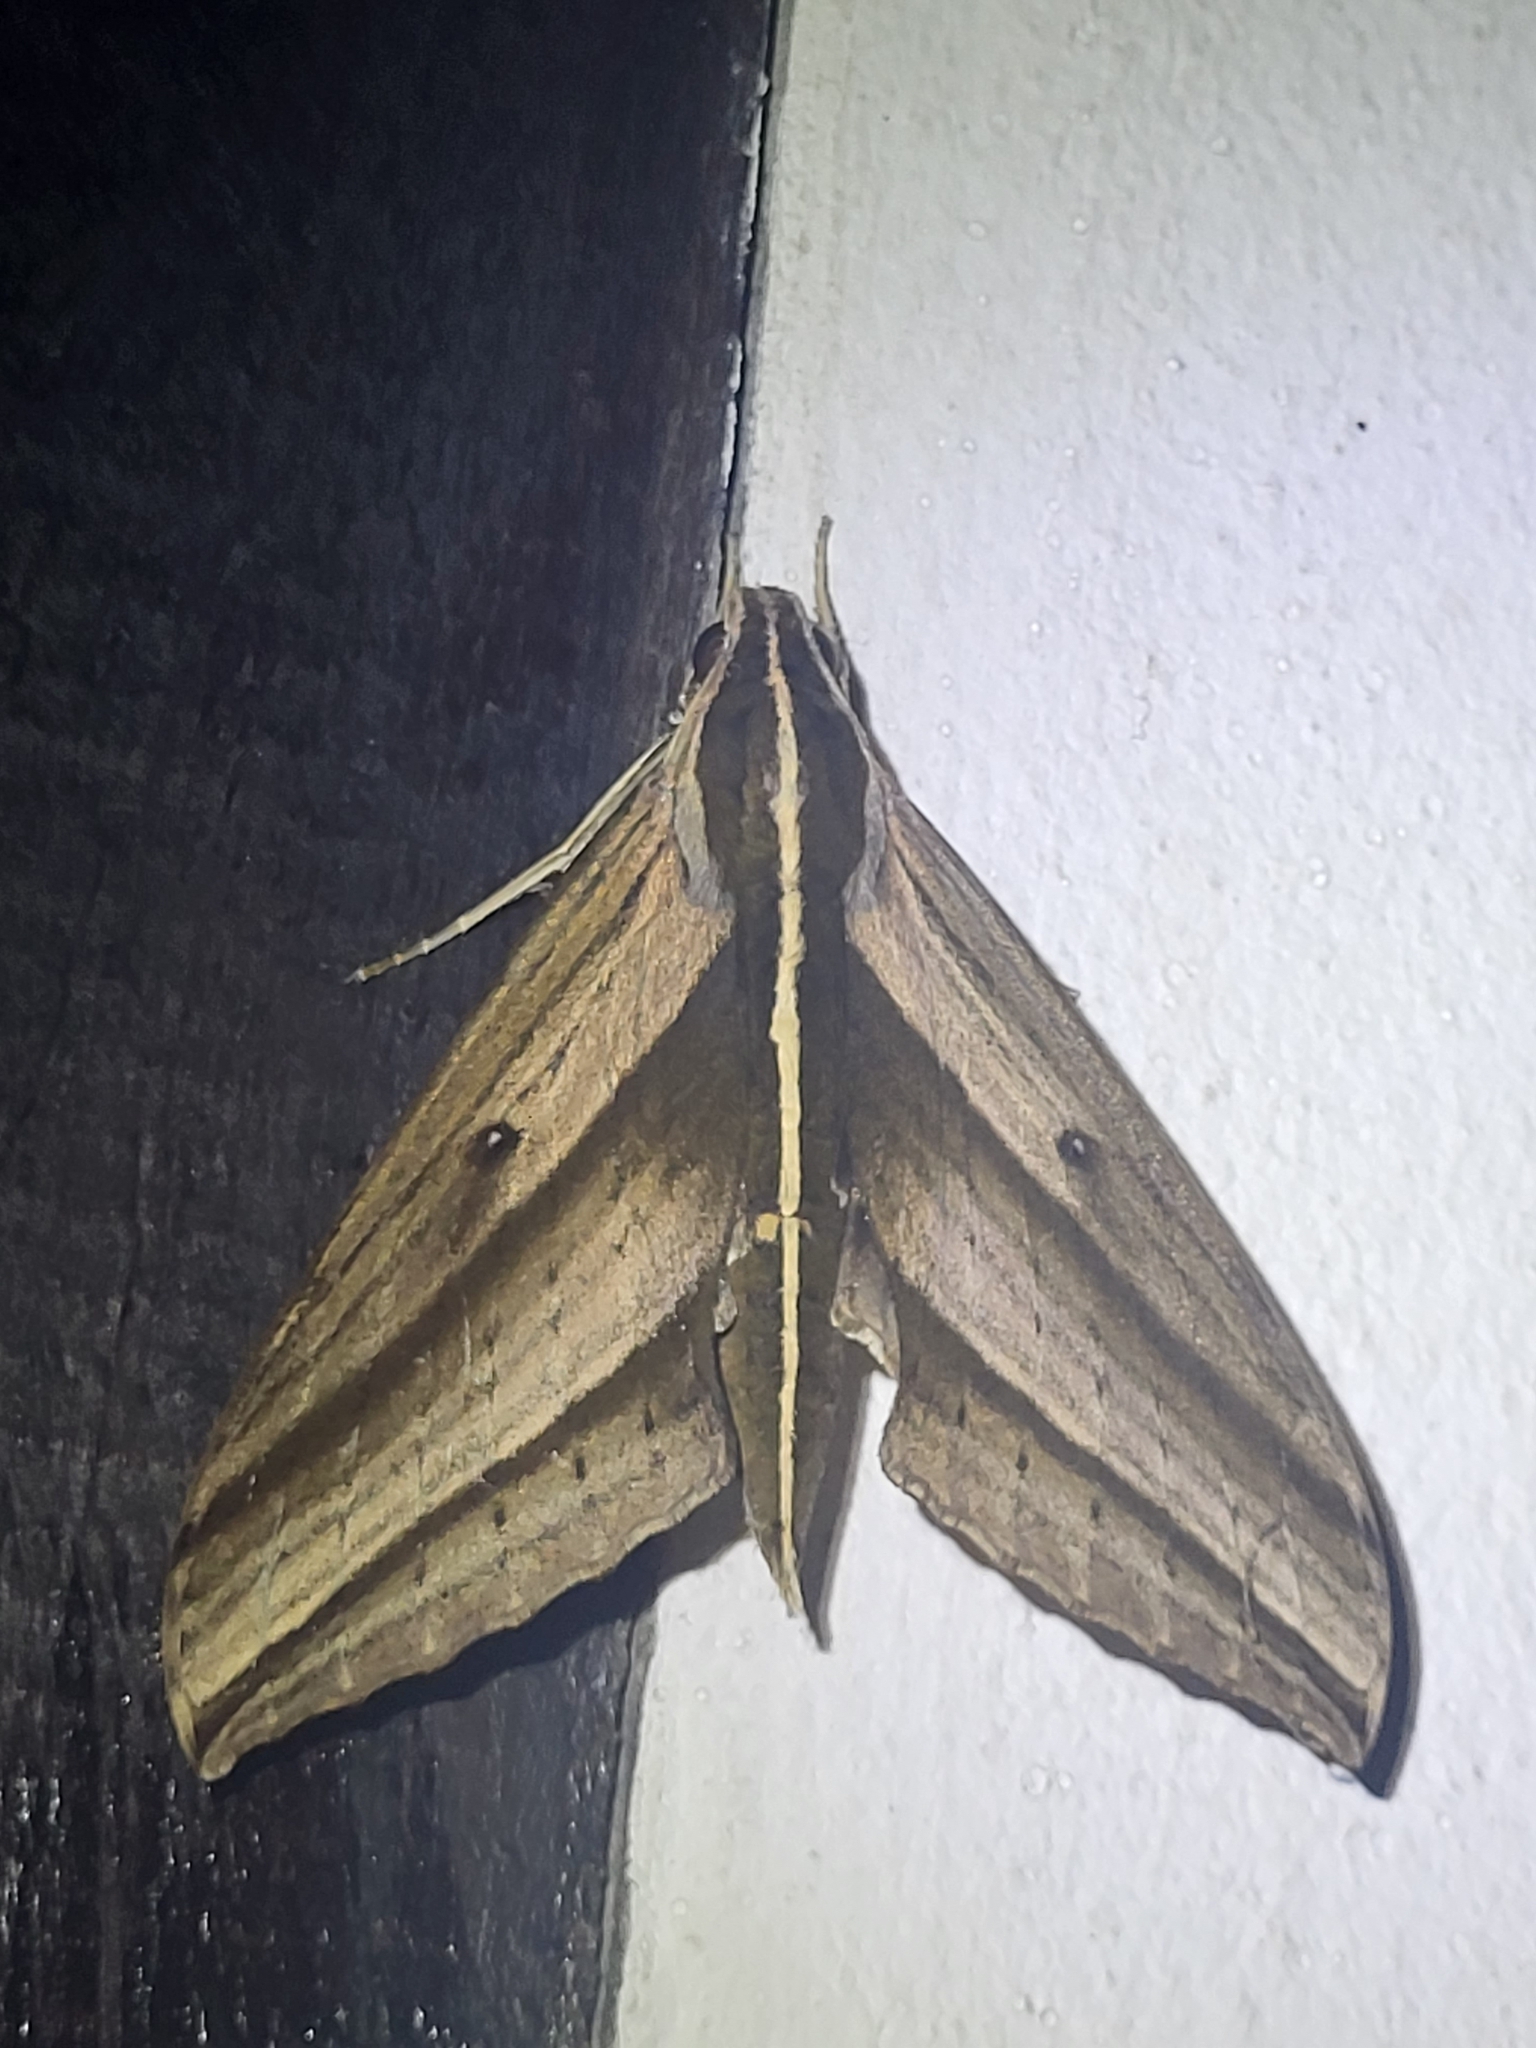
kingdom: Animalia
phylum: Arthropoda
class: Insecta
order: Lepidoptera
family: Sphingidae
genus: Elibia
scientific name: Elibia dolichus
